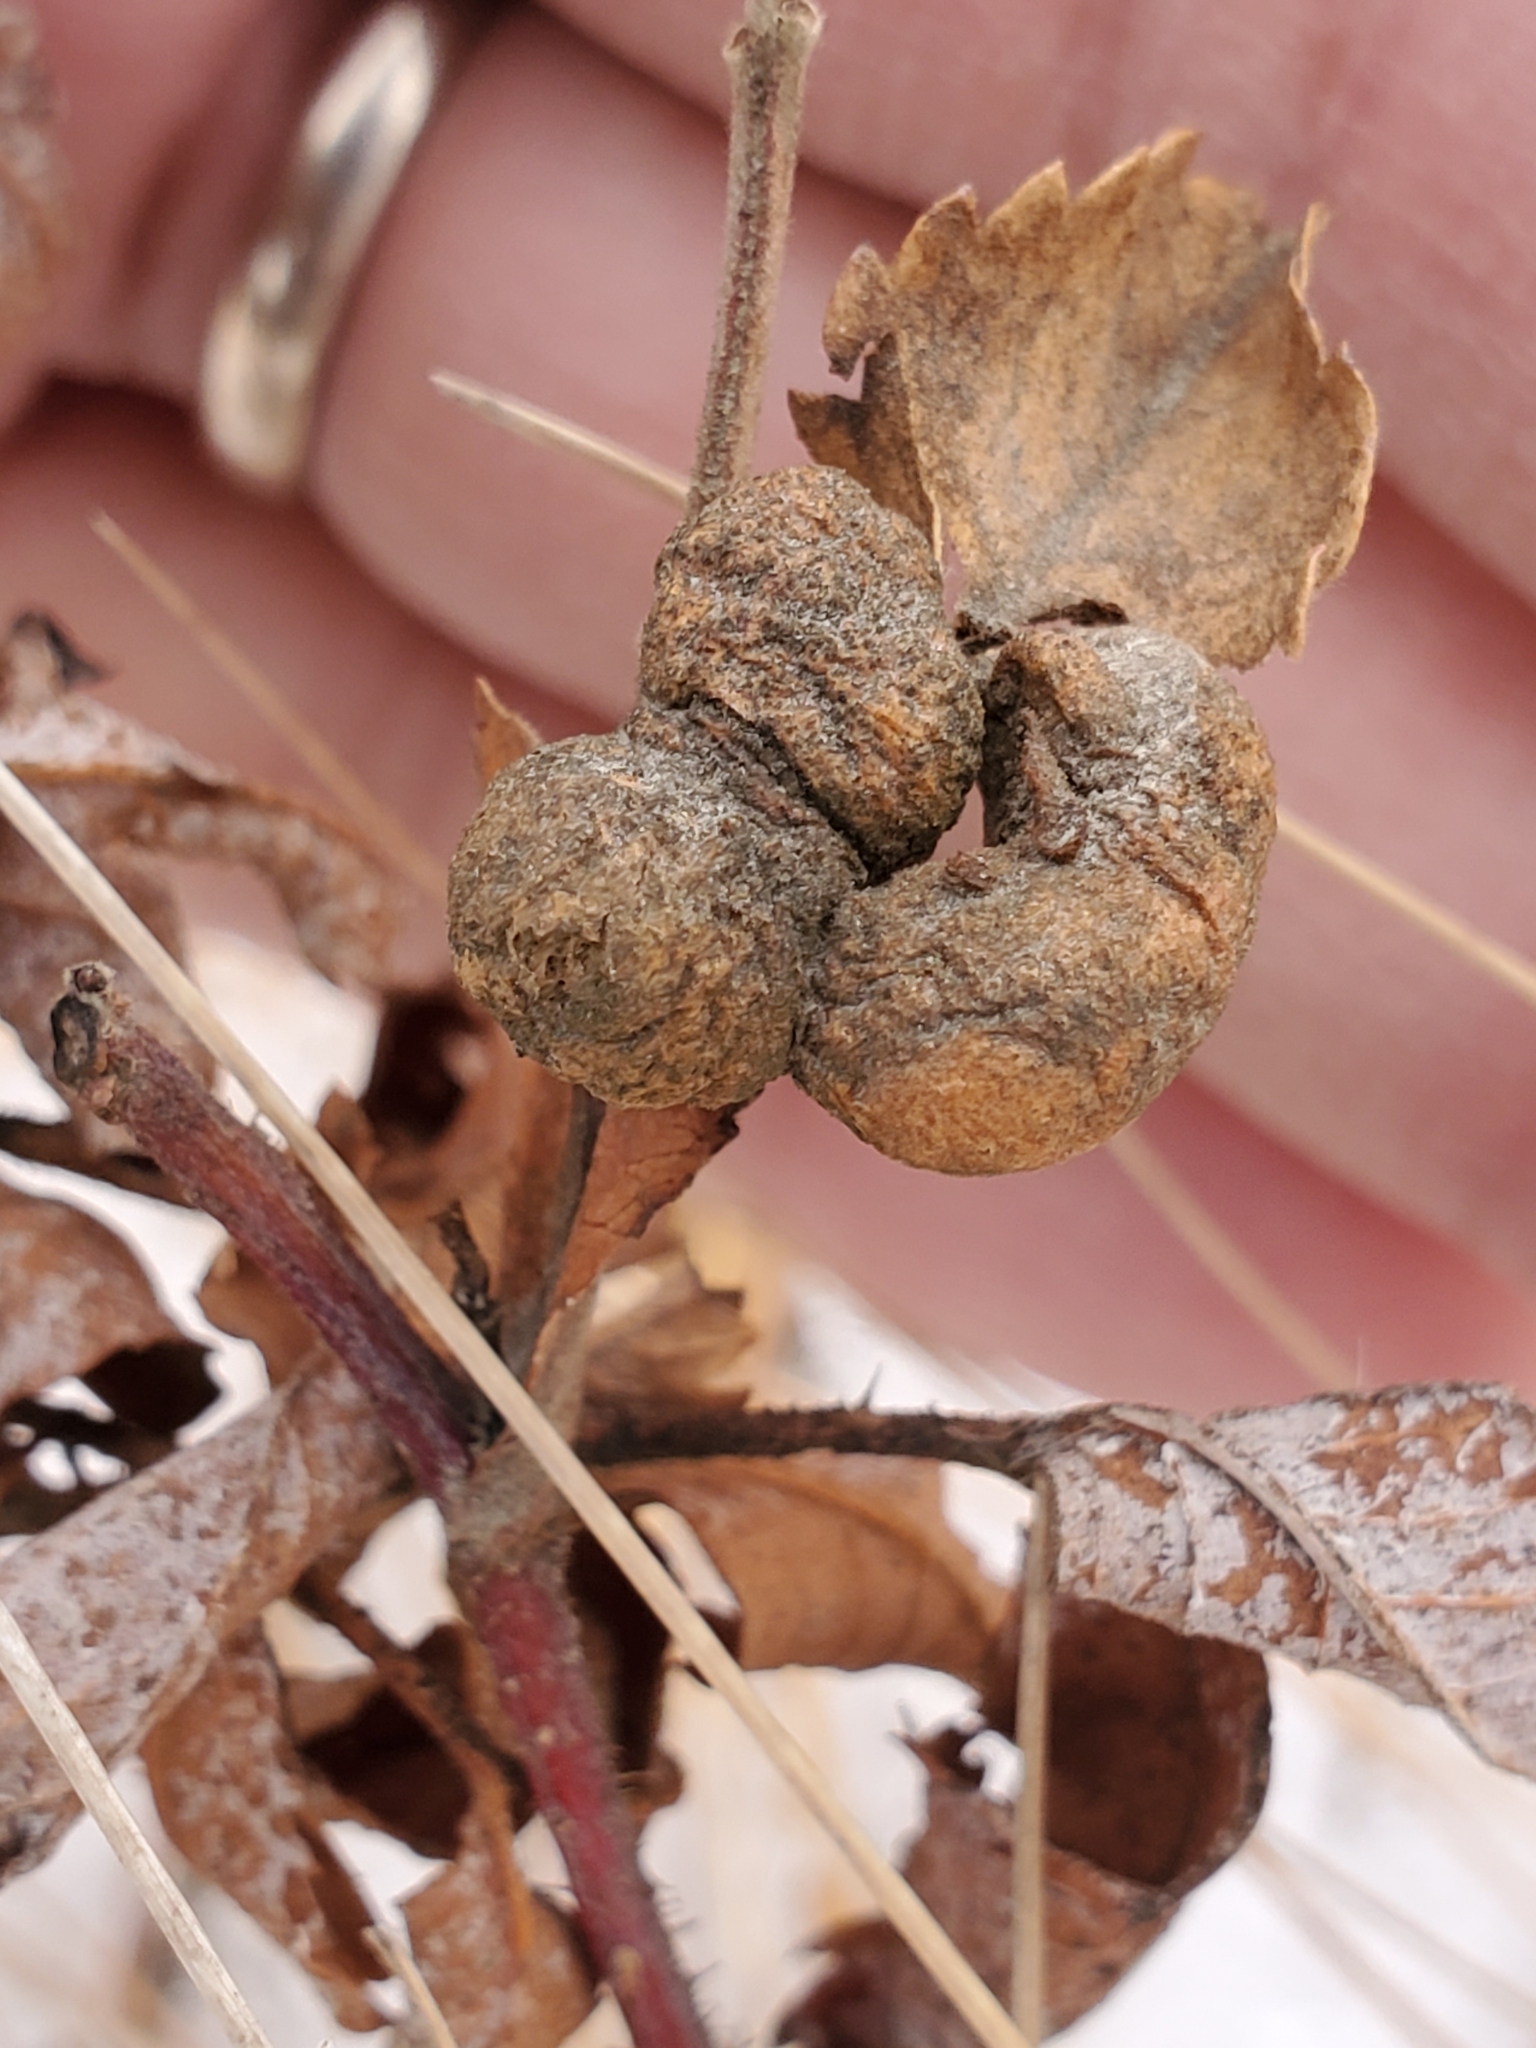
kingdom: Animalia
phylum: Arthropoda
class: Insecta
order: Hymenoptera
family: Cynipidae
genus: Diplolepis
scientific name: Diplolepis ignota
